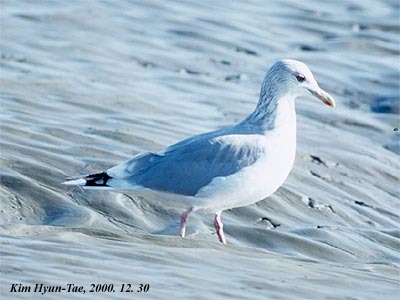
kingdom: Animalia
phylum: Chordata
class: Aves
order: Charadriiformes
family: Laridae
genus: Larus
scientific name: Larus vegae
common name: Vega gull
